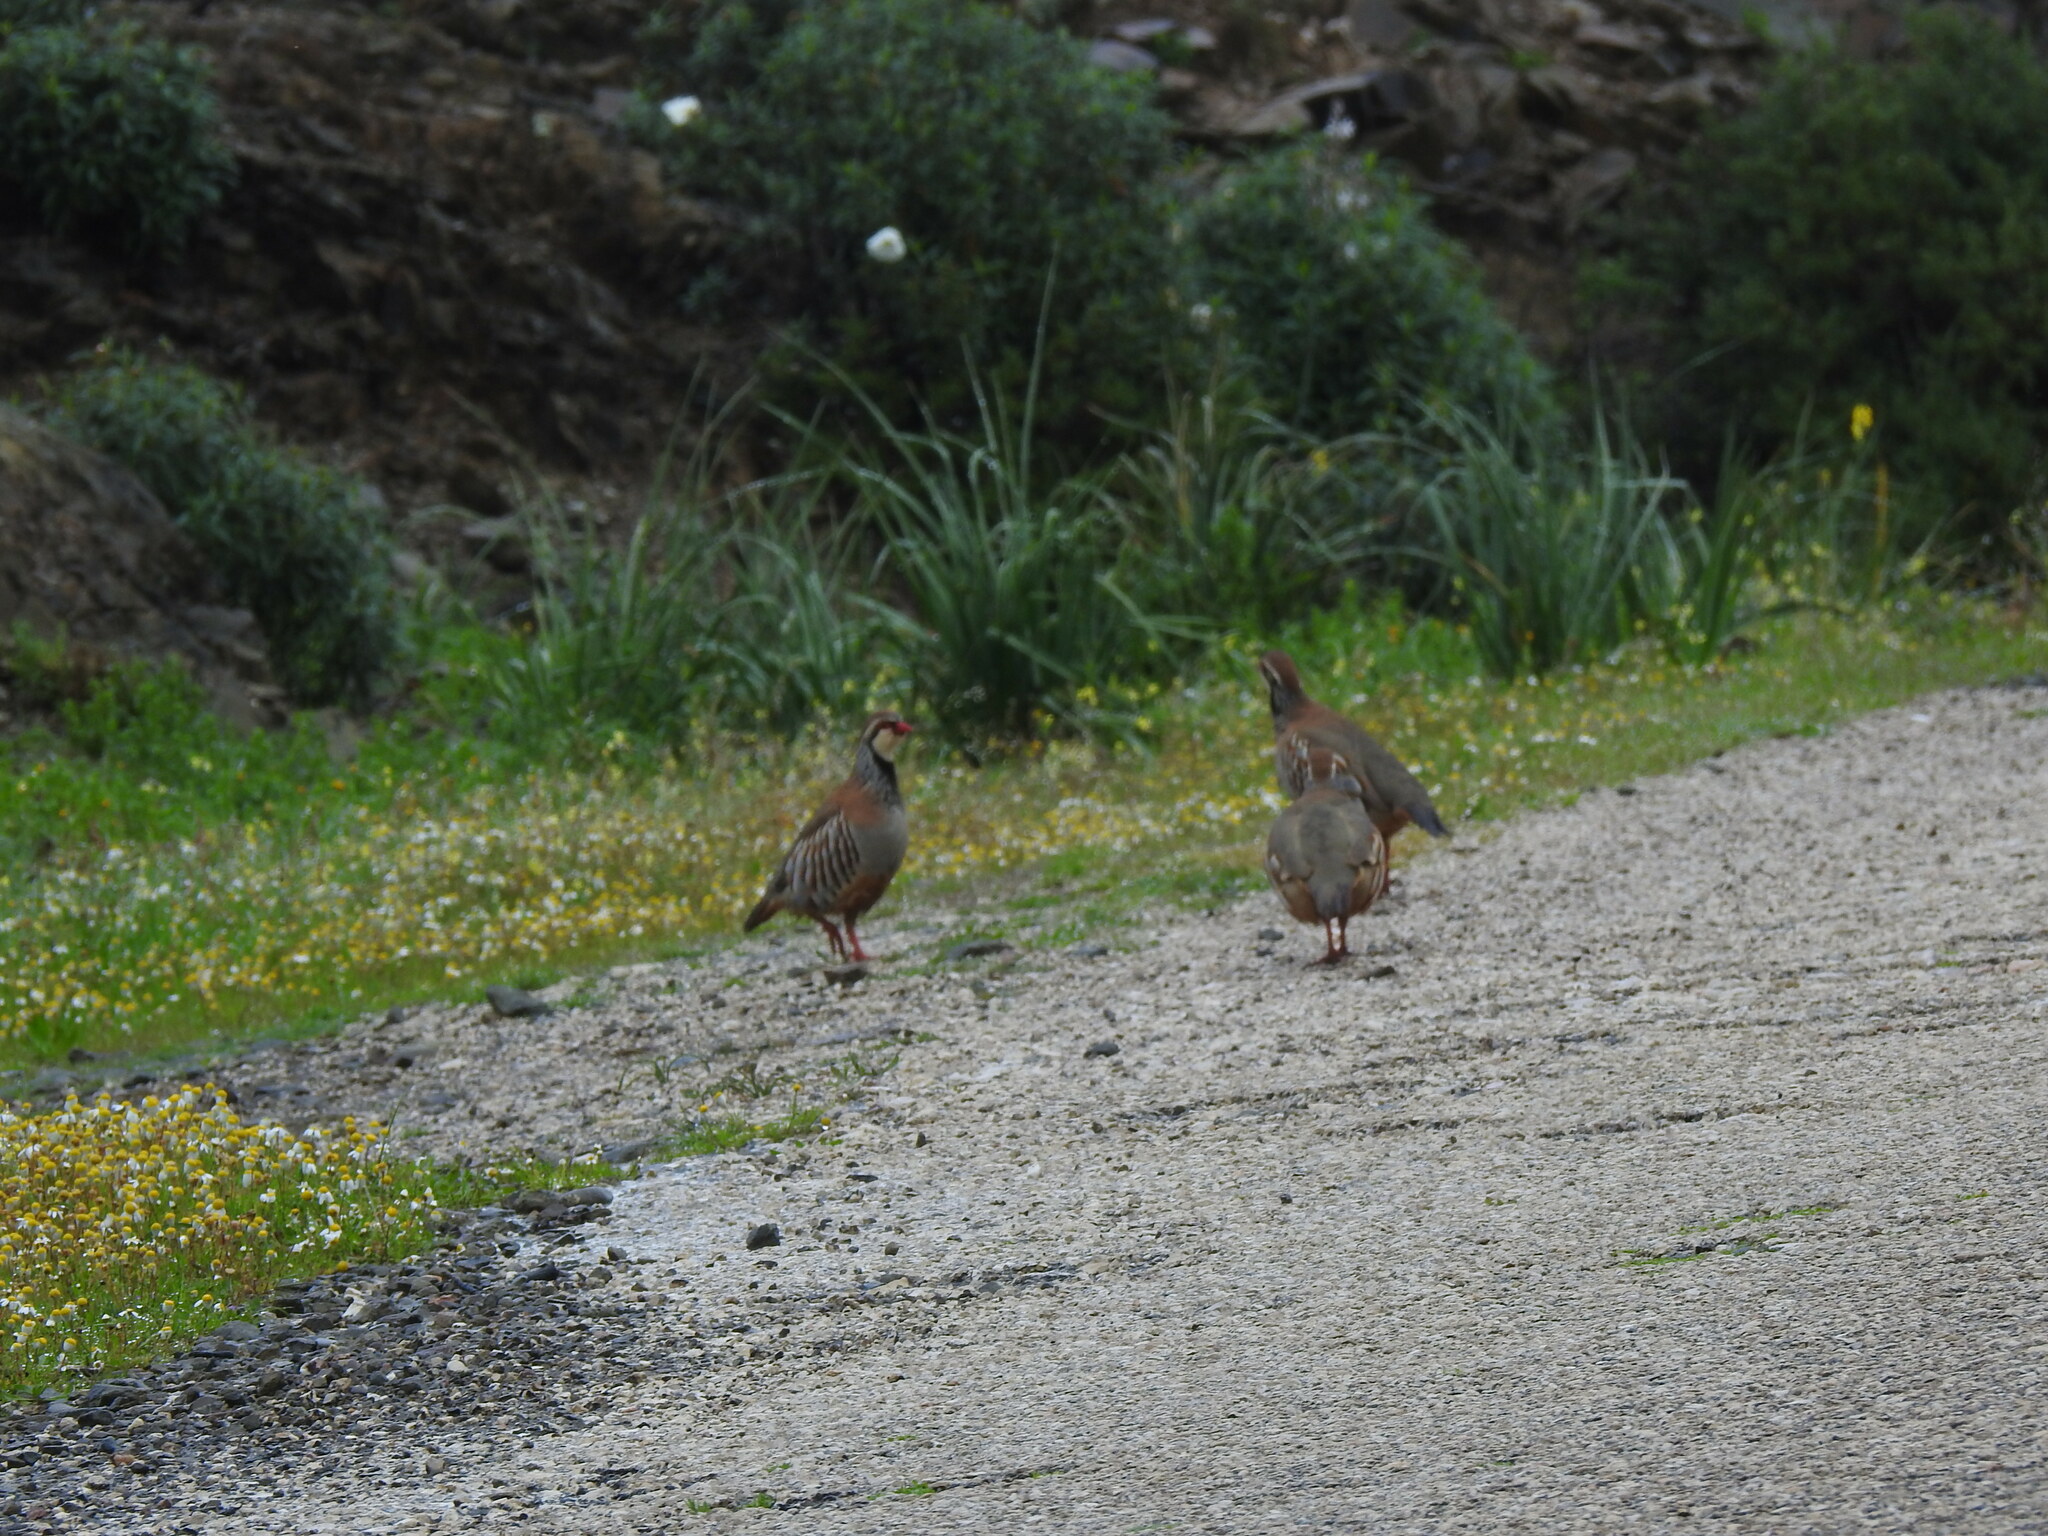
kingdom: Animalia
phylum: Chordata
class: Aves
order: Galliformes
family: Phasianidae
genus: Alectoris
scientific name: Alectoris rufa
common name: Red-legged partridge
